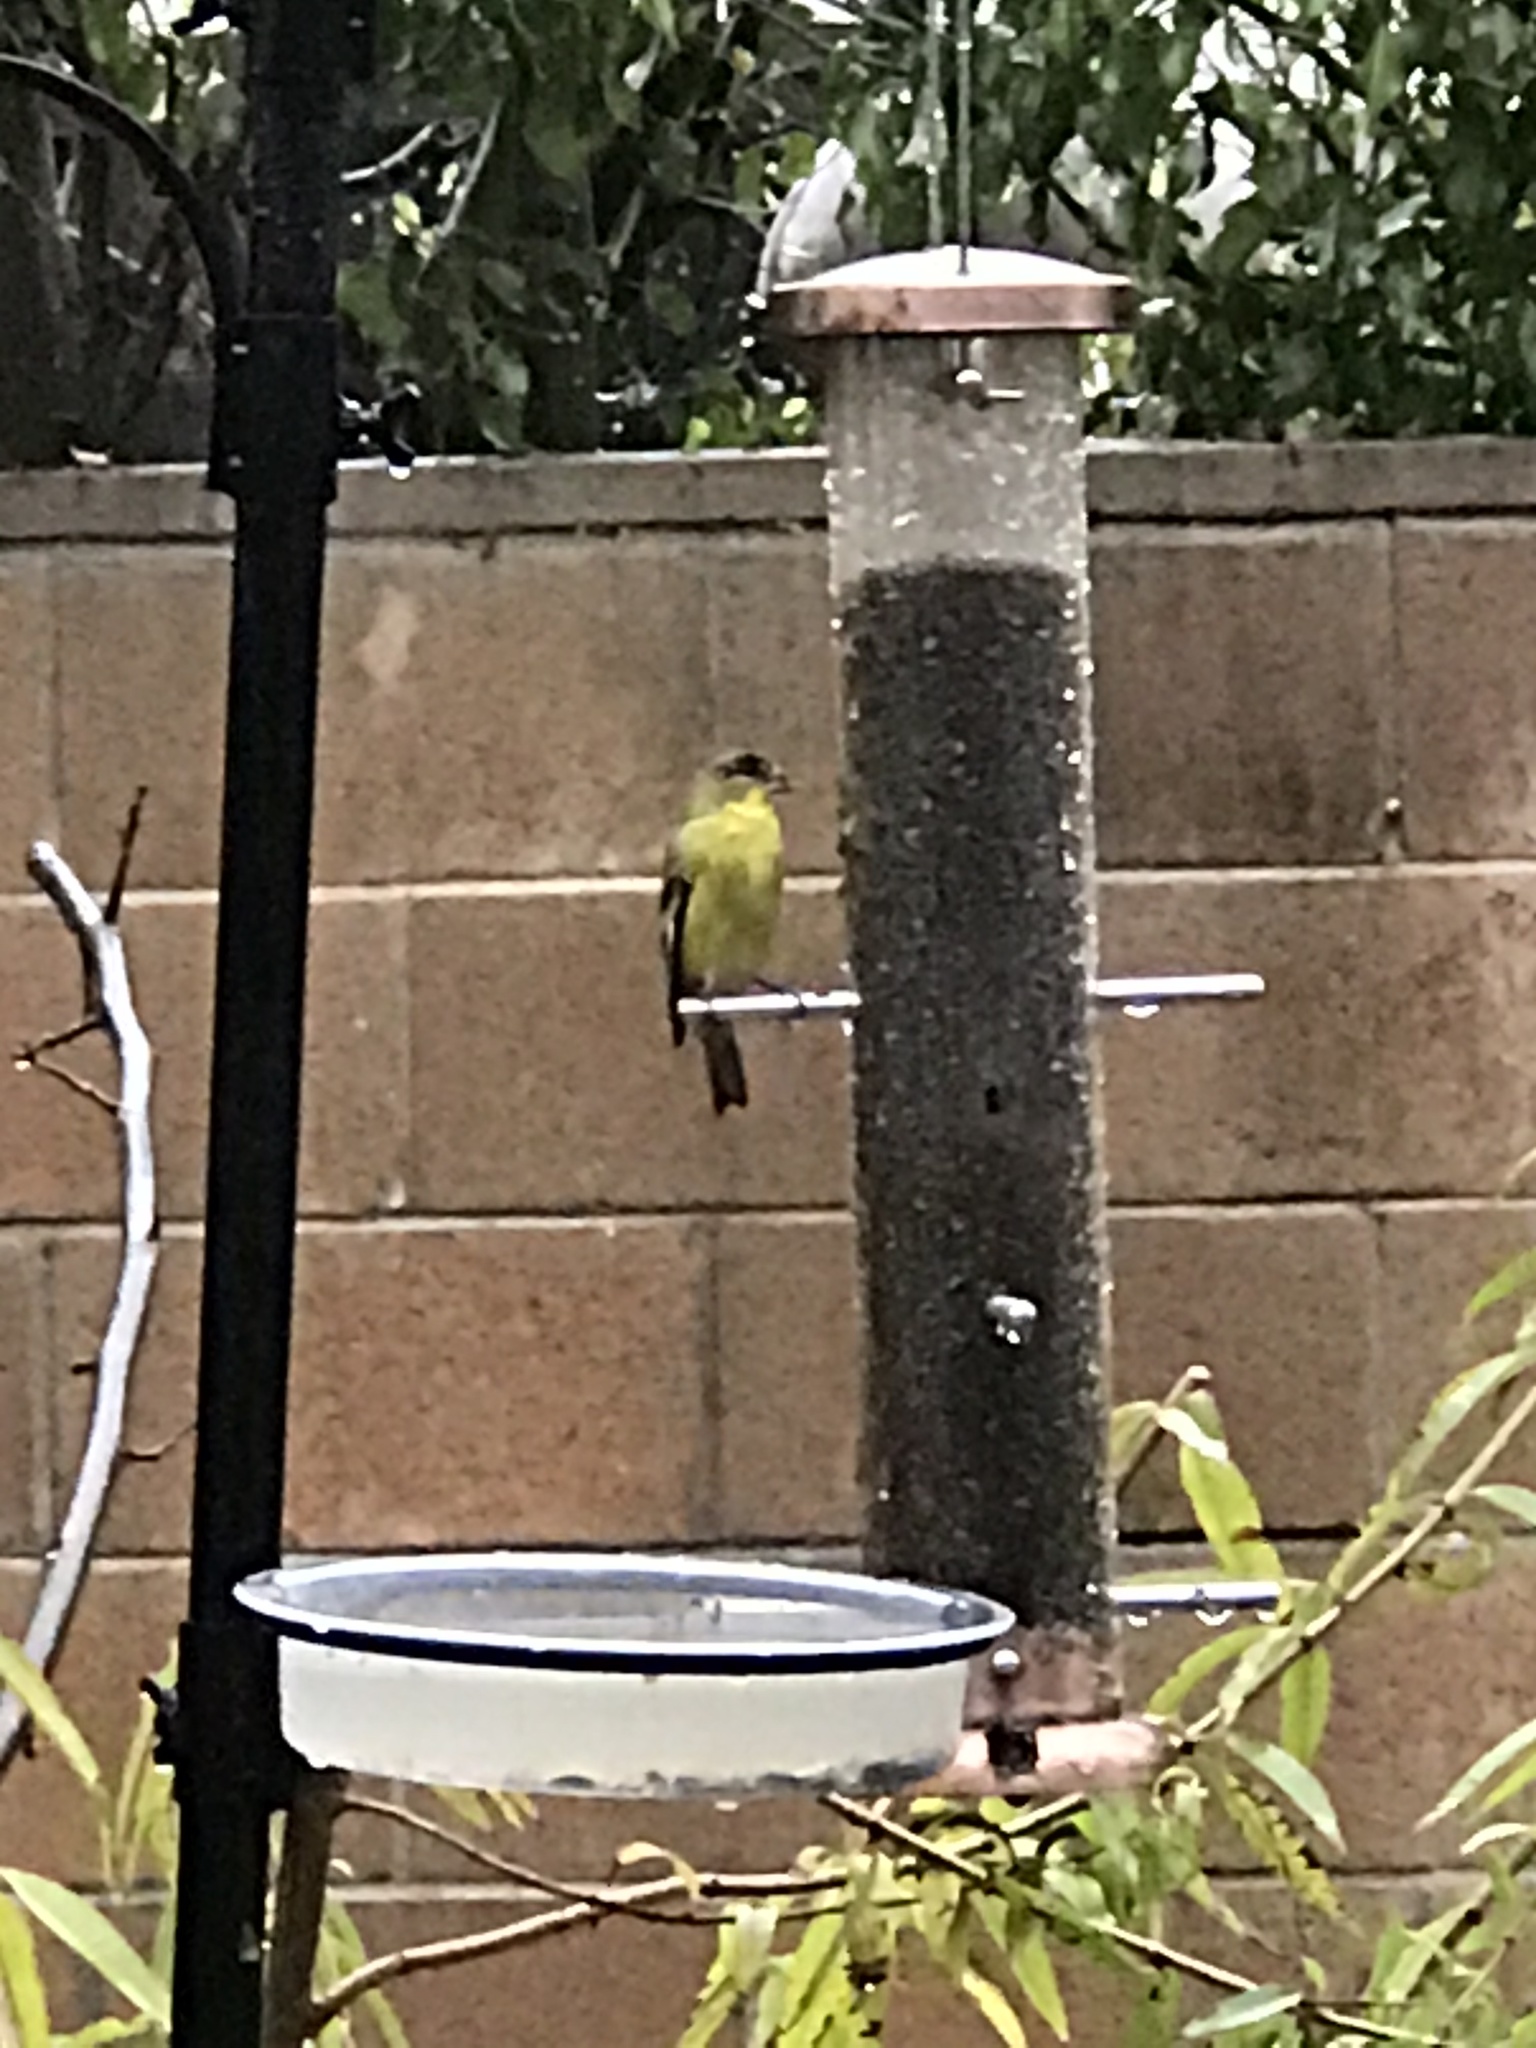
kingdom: Animalia
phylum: Chordata
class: Aves
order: Passeriformes
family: Fringillidae
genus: Spinus
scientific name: Spinus psaltria
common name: Lesser goldfinch
